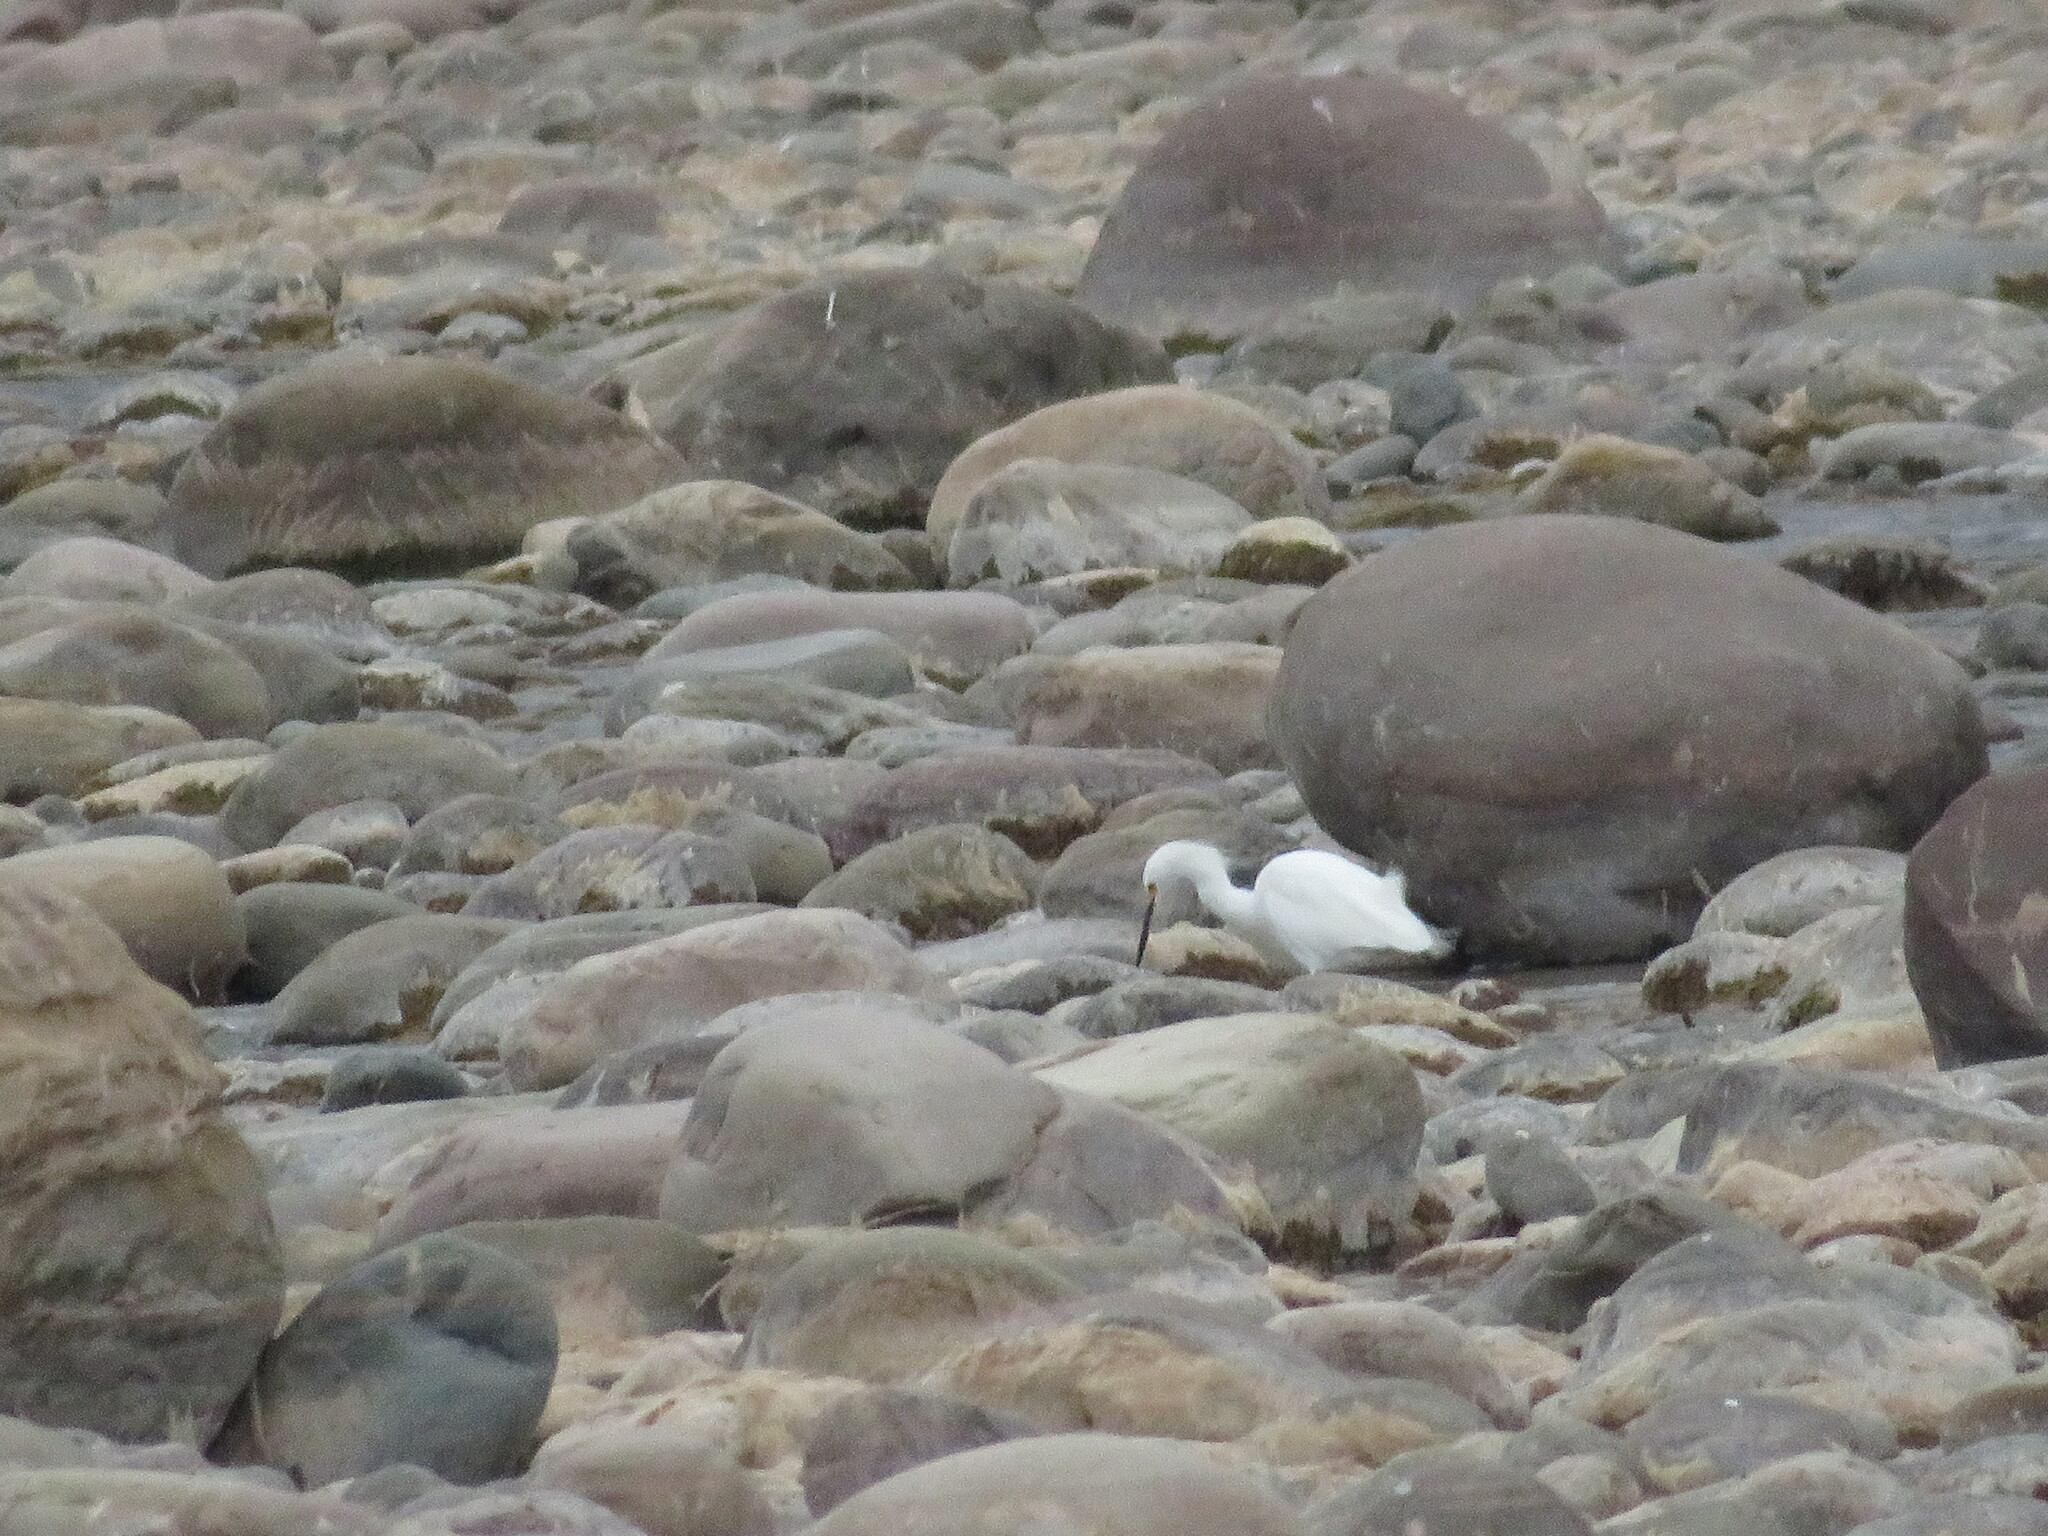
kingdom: Animalia
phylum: Chordata
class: Aves
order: Pelecaniformes
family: Ardeidae
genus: Egretta
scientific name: Egretta thula
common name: Snowy egret
